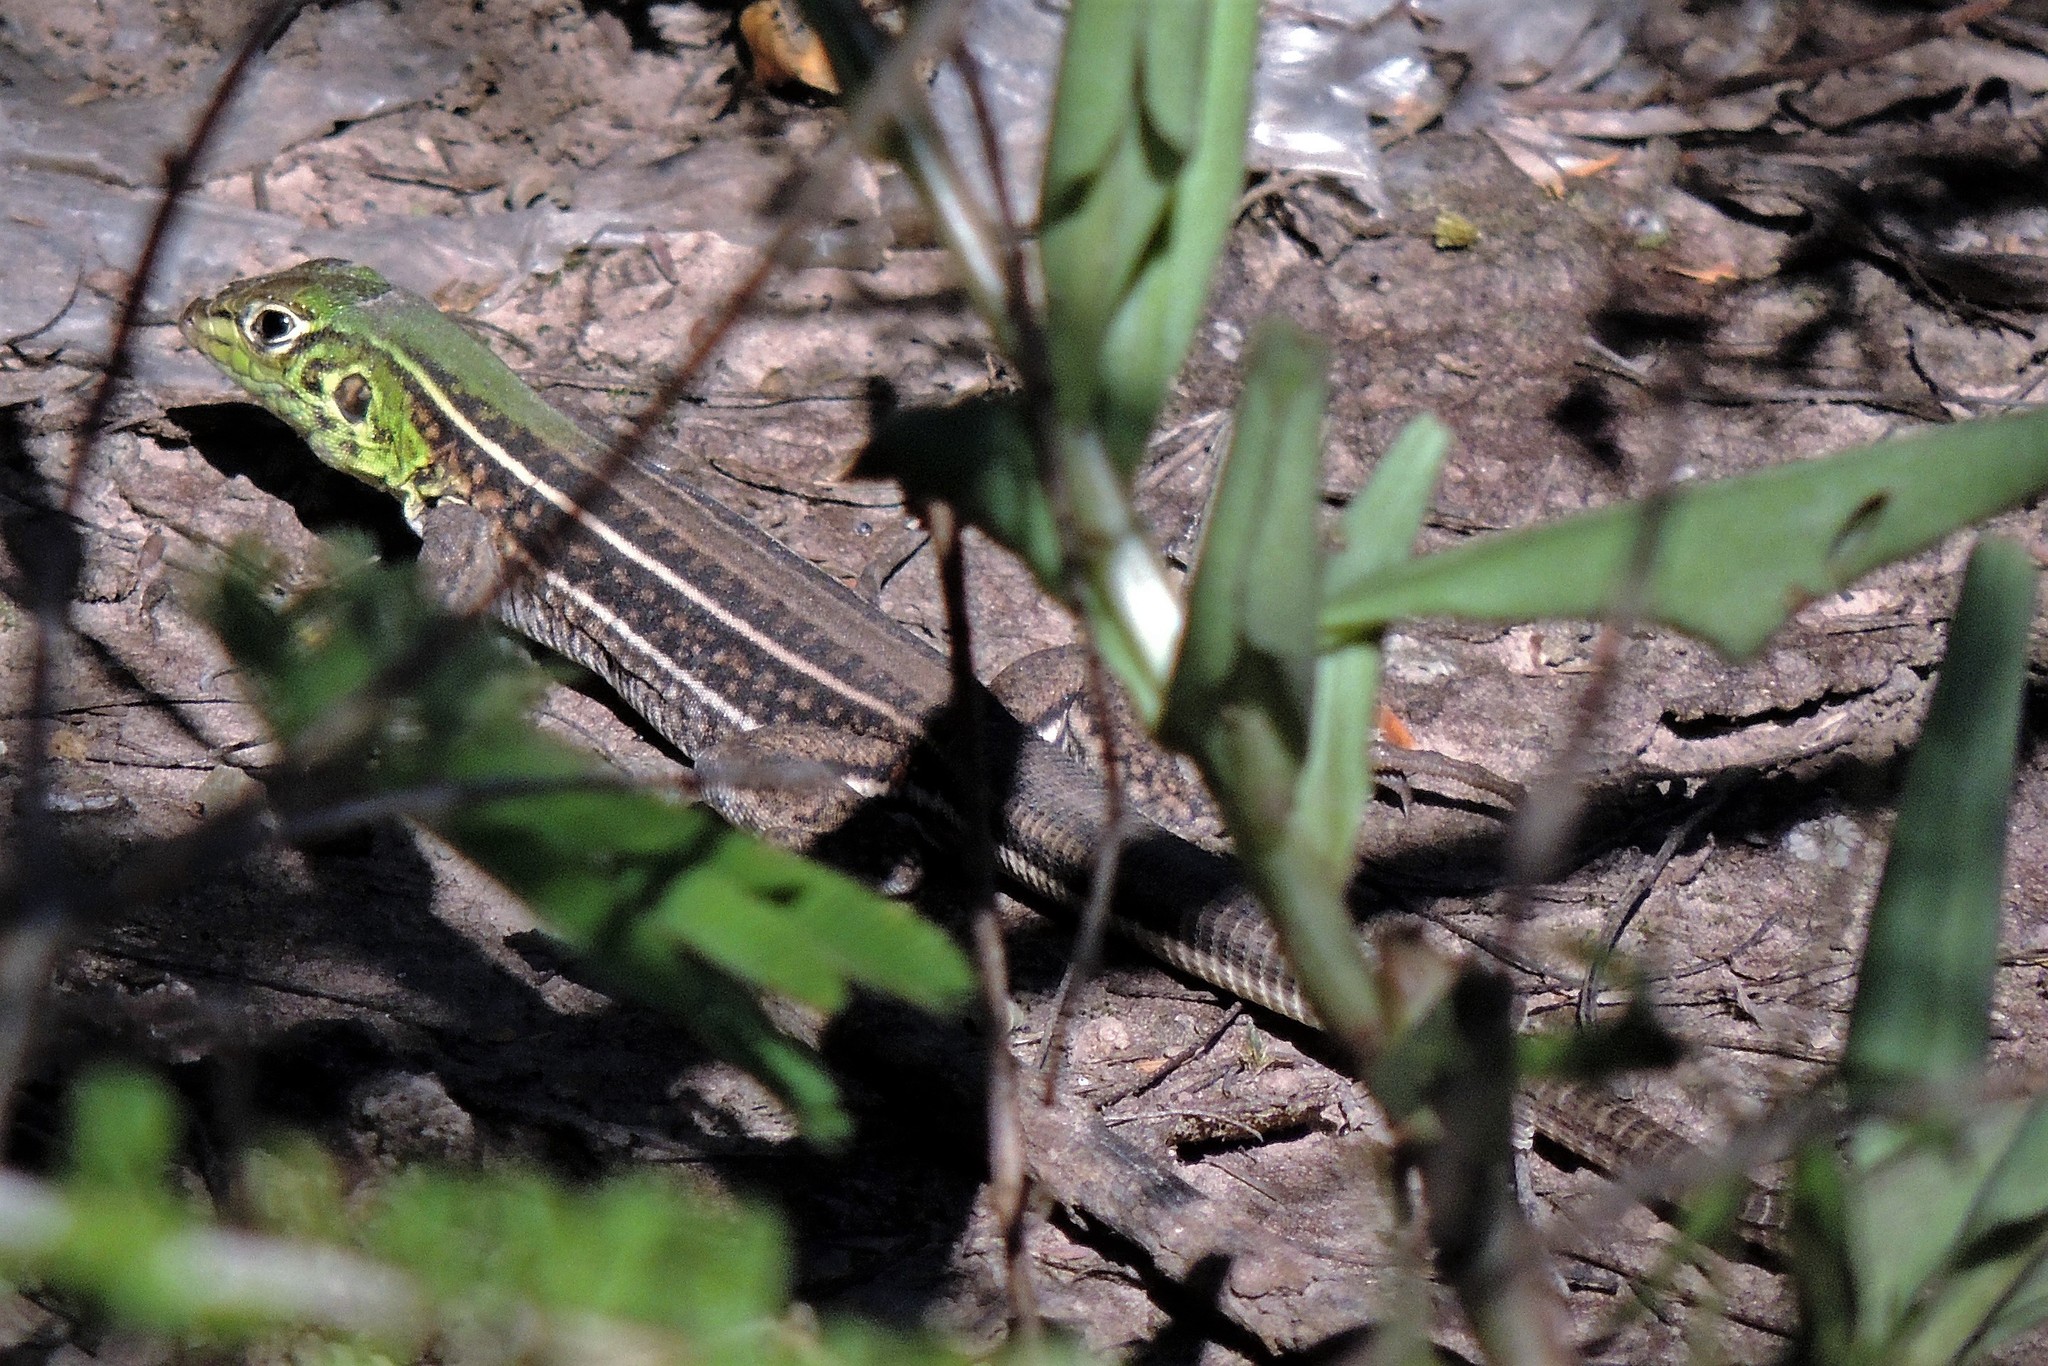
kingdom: Animalia
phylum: Chordata
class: Squamata
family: Teiidae
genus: Teius
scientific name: Teius teyou
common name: Four-toed tegu
